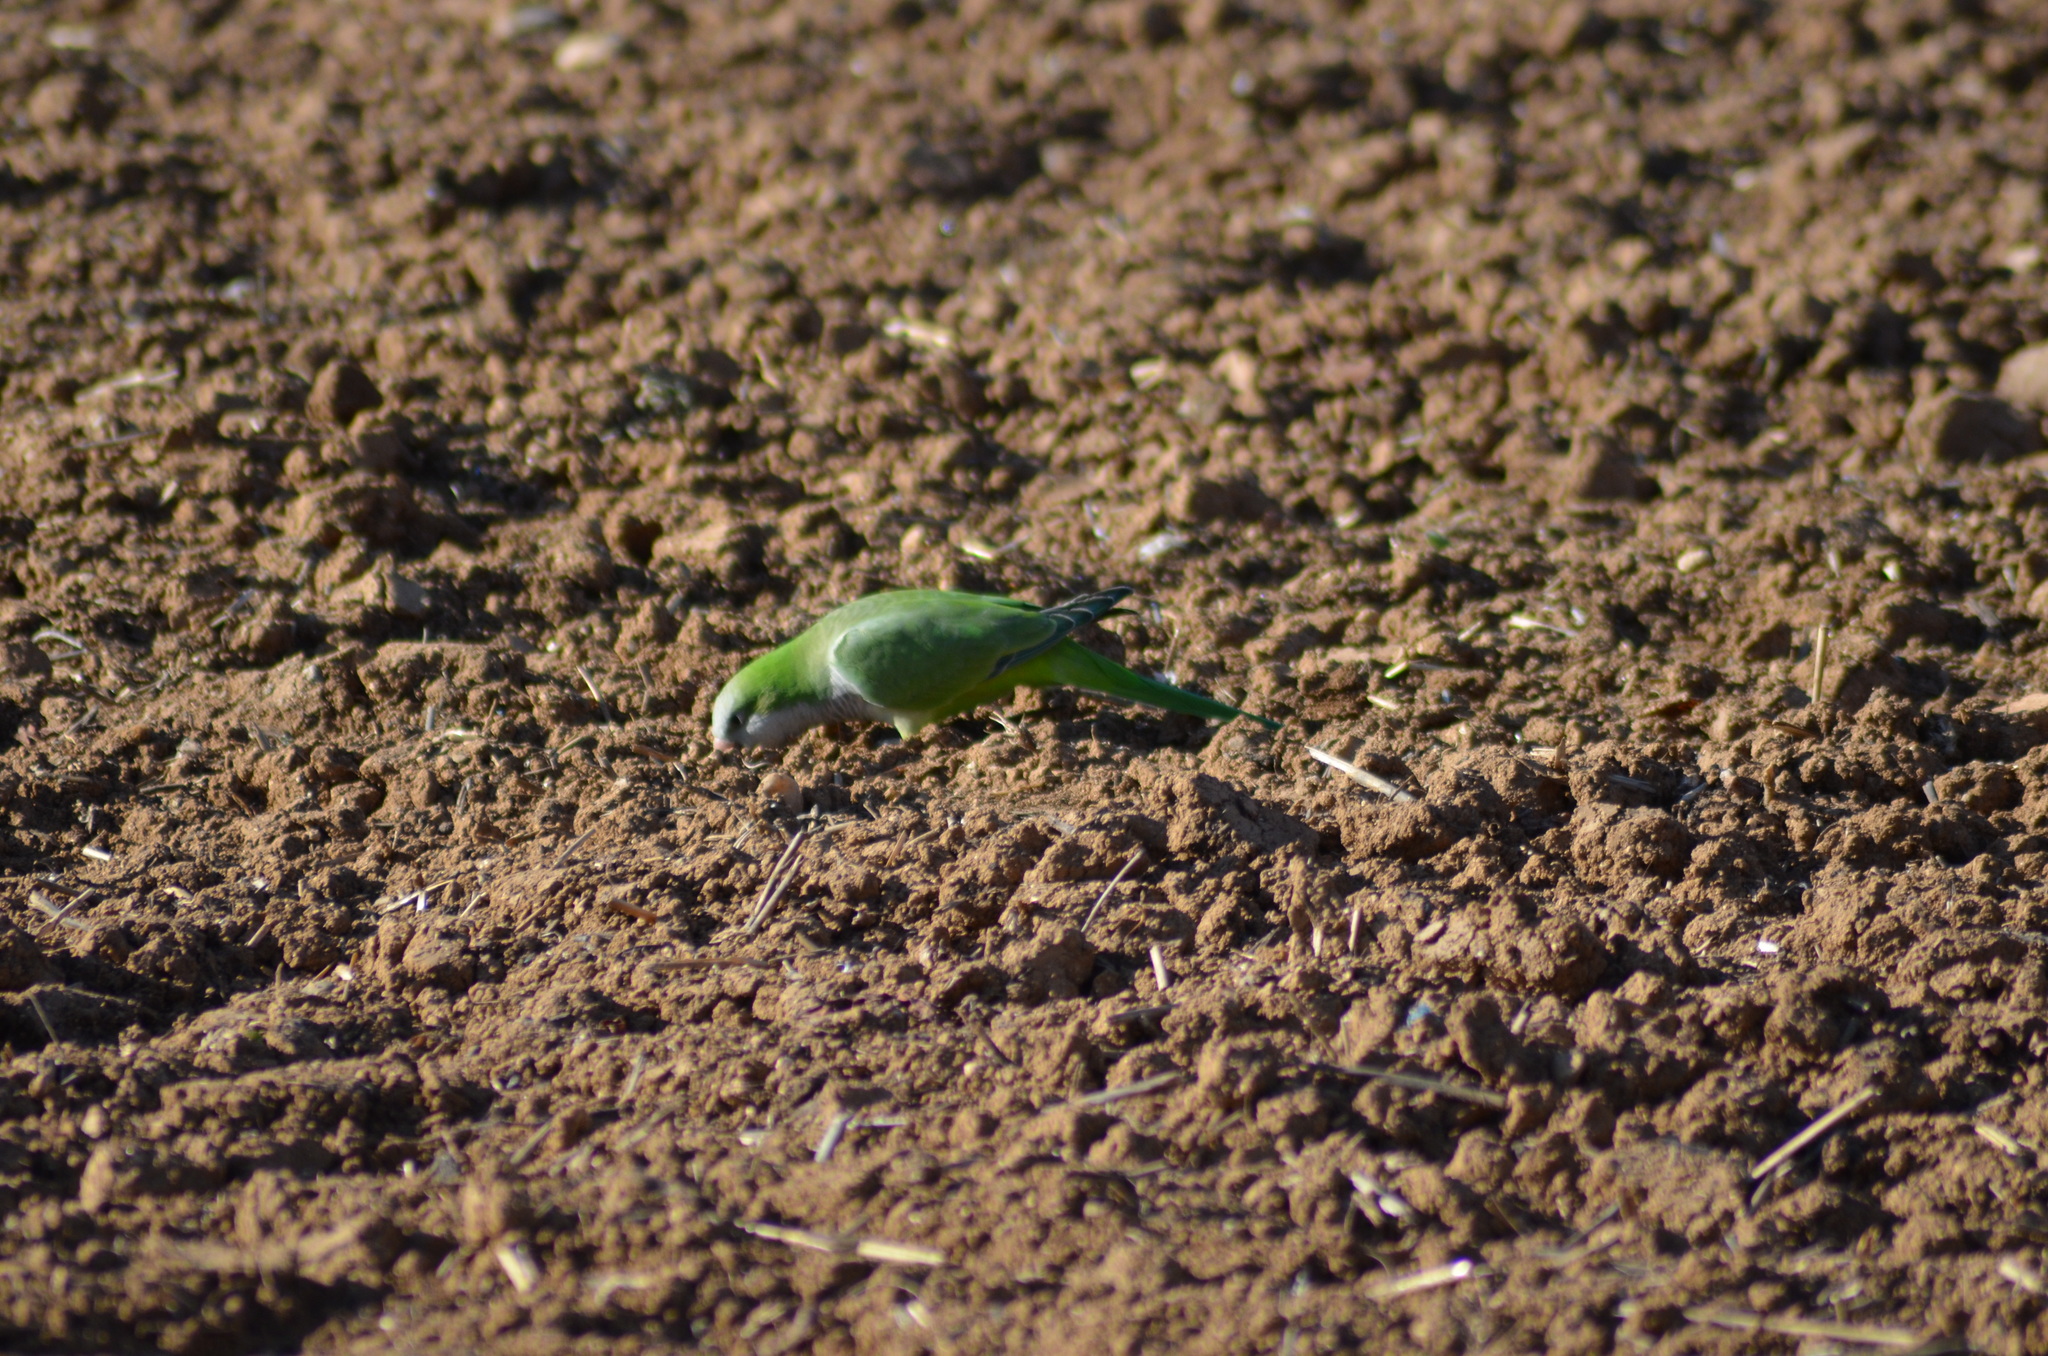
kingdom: Animalia
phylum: Chordata
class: Aves
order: Psittaciformes
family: Psittacidae
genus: Myiopsitta
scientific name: Myiopsitta monachus
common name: Monk parakeet
